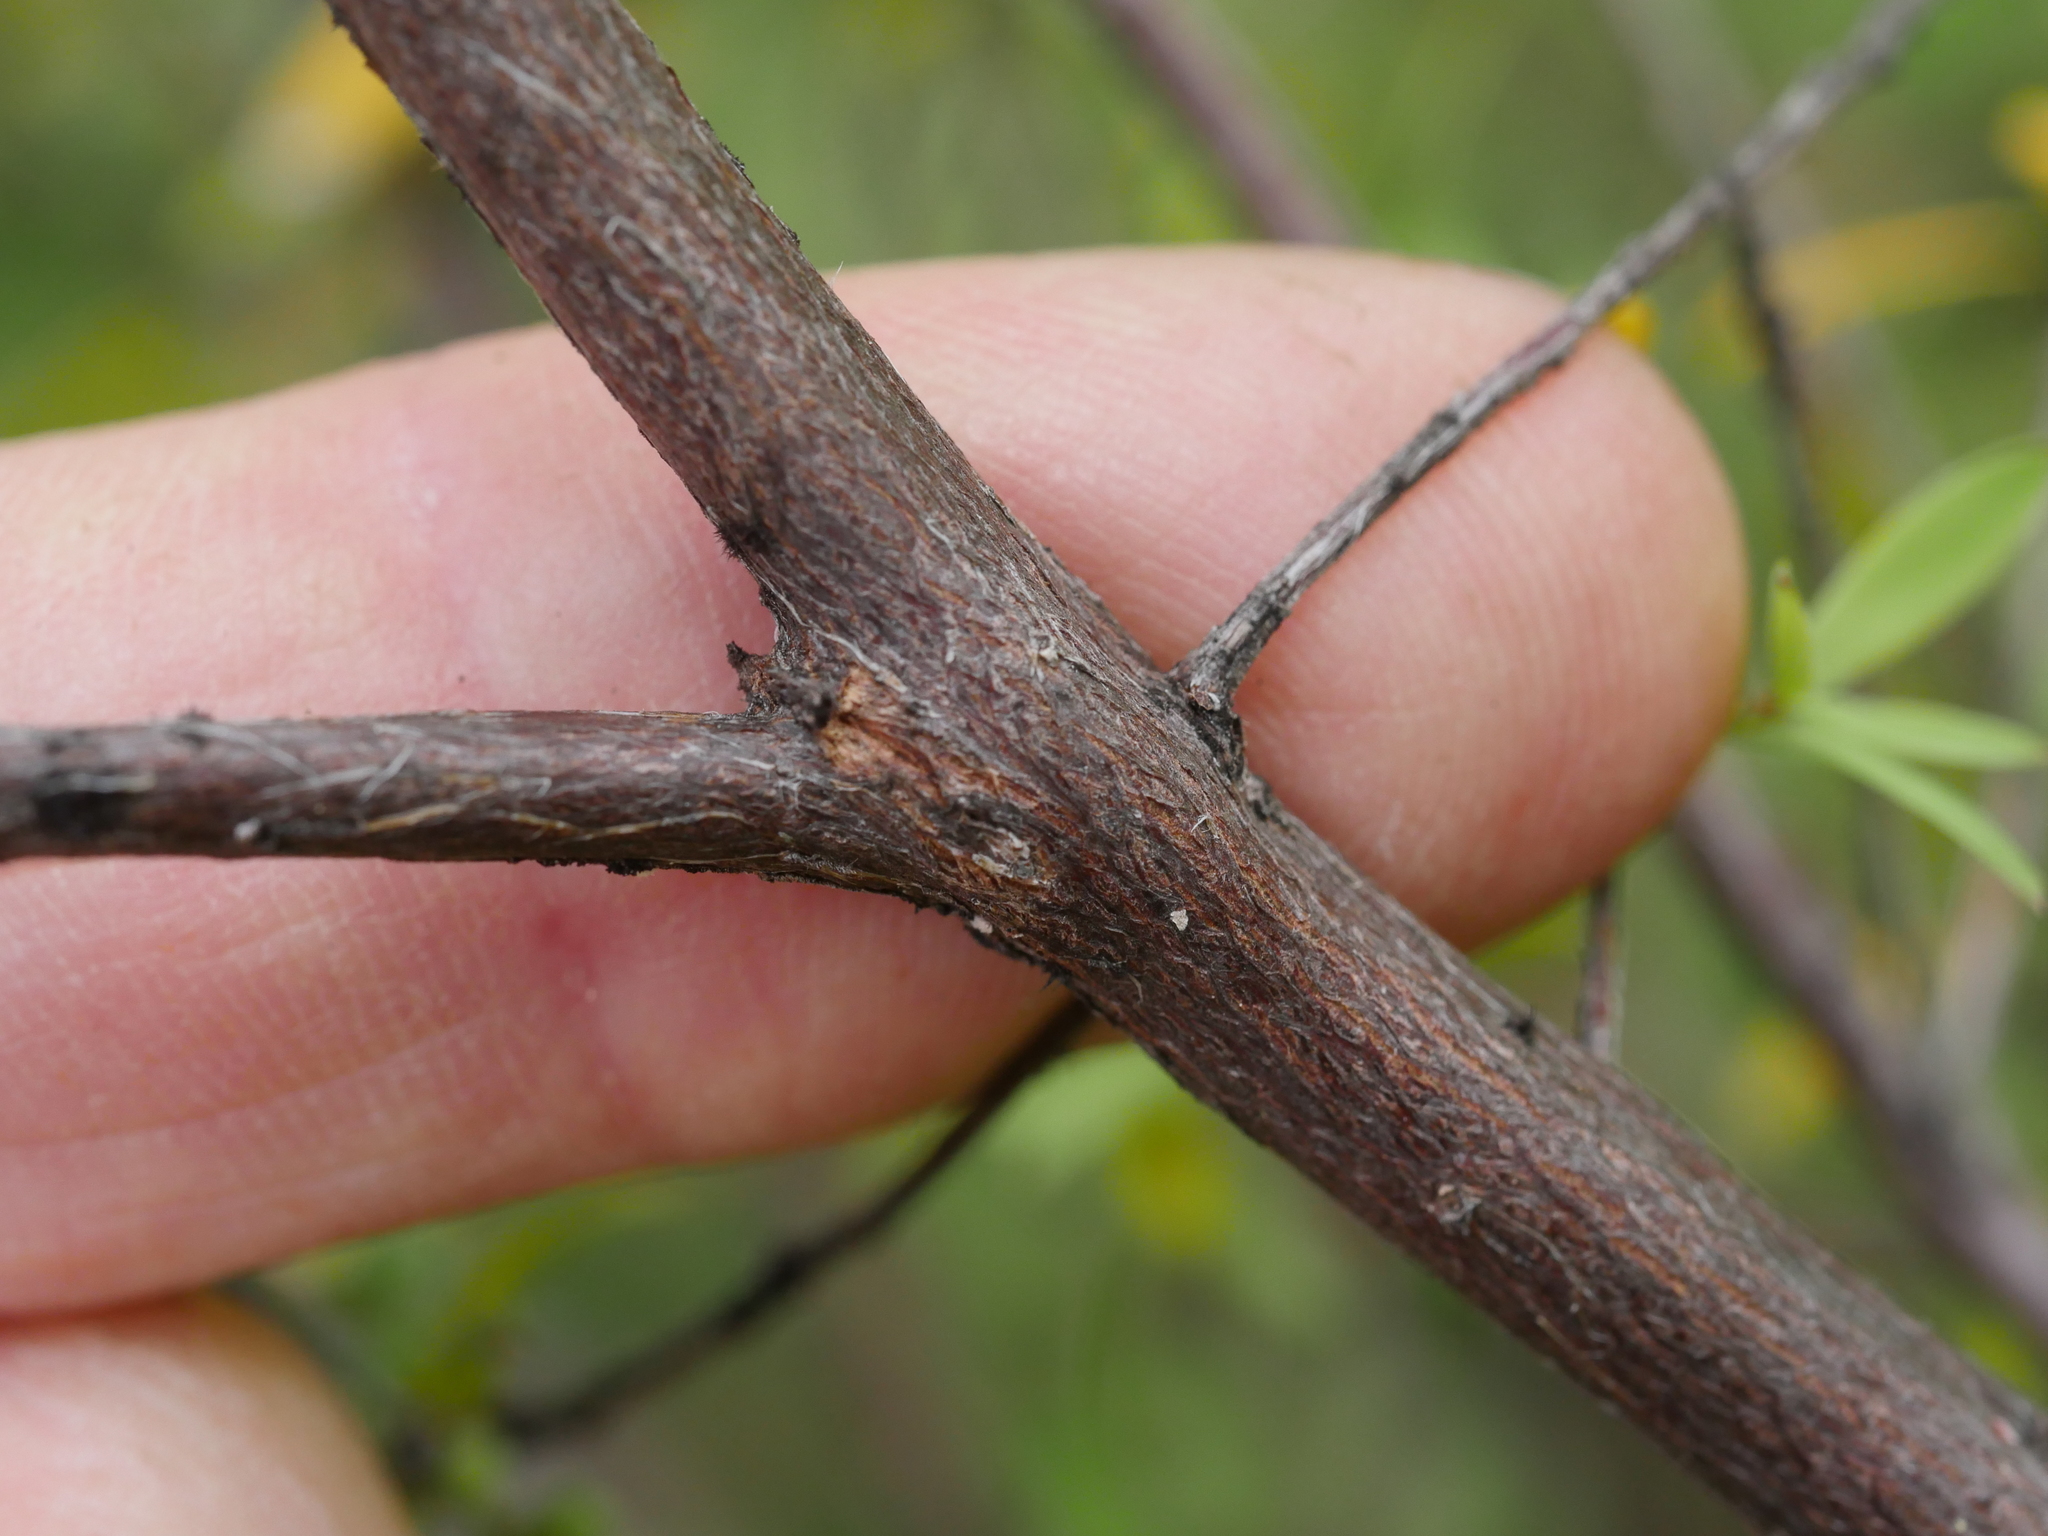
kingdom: Plantae
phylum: Tracheophyta
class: Magnoliopsida
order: Ericales
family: Ericaceae
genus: Leucopogon
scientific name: Leucopogon fasciculatus
